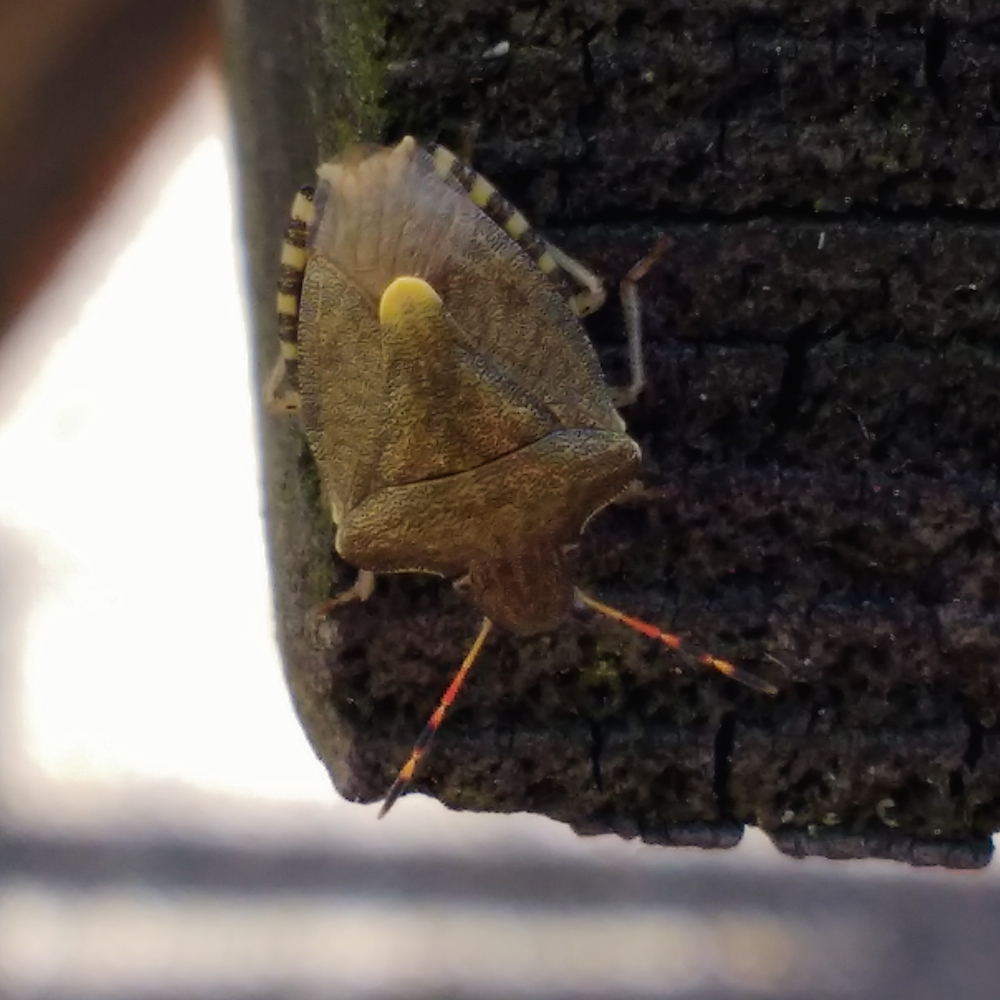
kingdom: Animalia
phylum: Arthropoda
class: Insecta
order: Hemiptera
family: Pentatomidae
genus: Holcostethus
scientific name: Holcostethus strictus
